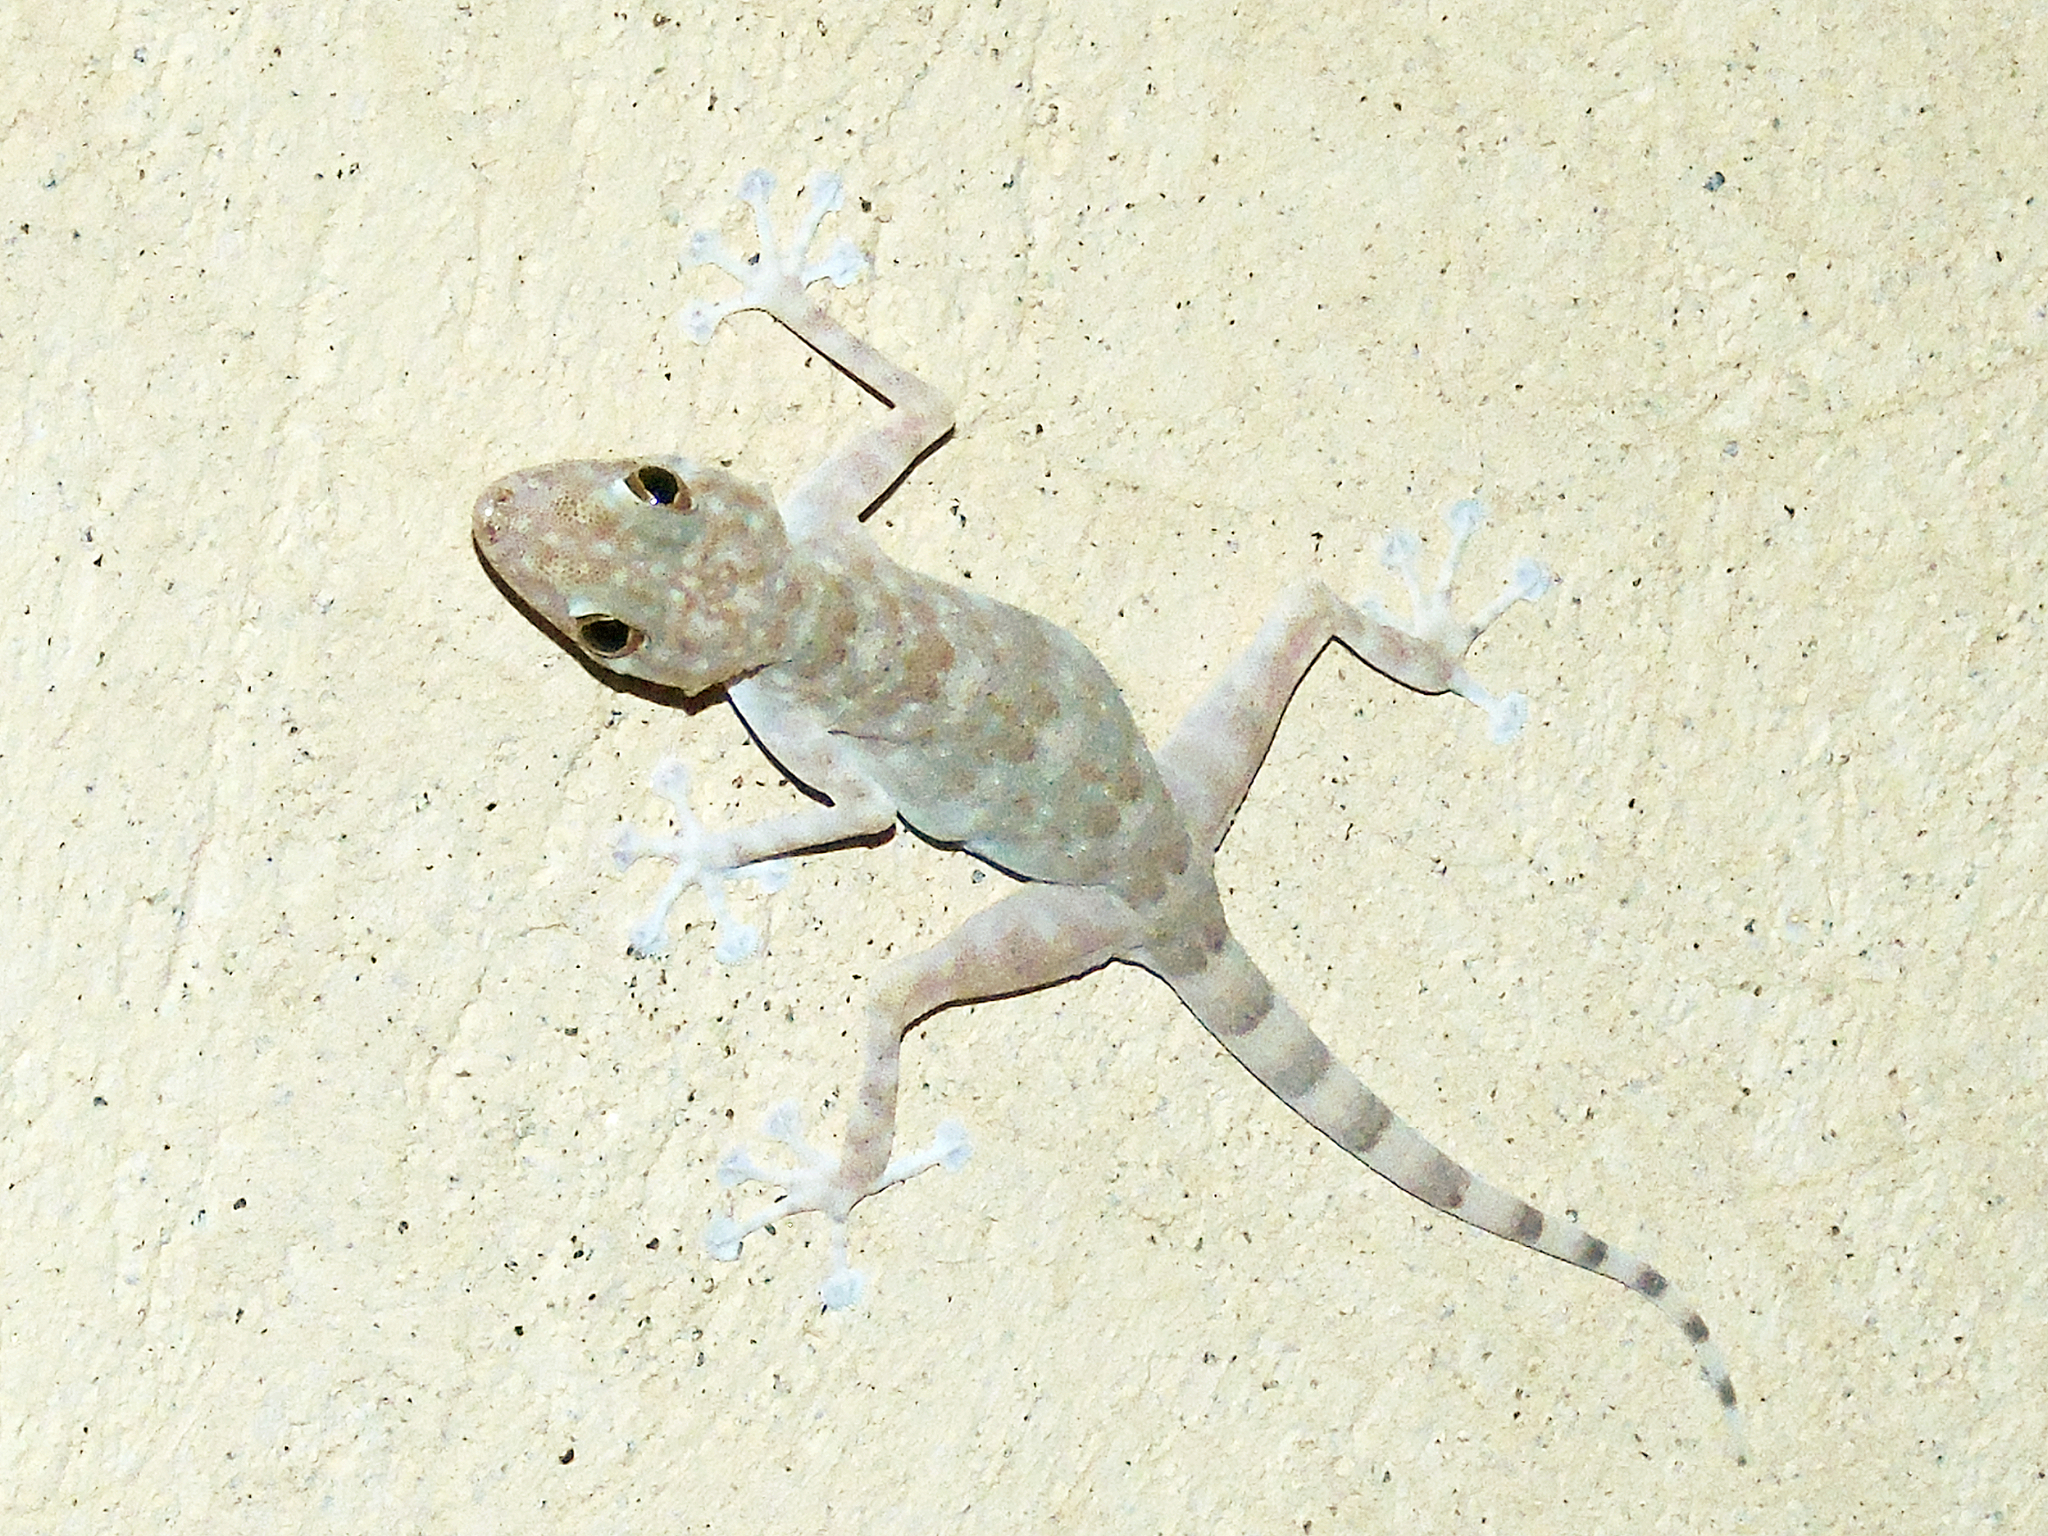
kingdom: Animalia
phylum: Chordata
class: Squamata
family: Phyllodactylidae
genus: Ptyodactylus
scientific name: Ptyodactylus orlovi
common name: Orlov's fan-footed gecko
